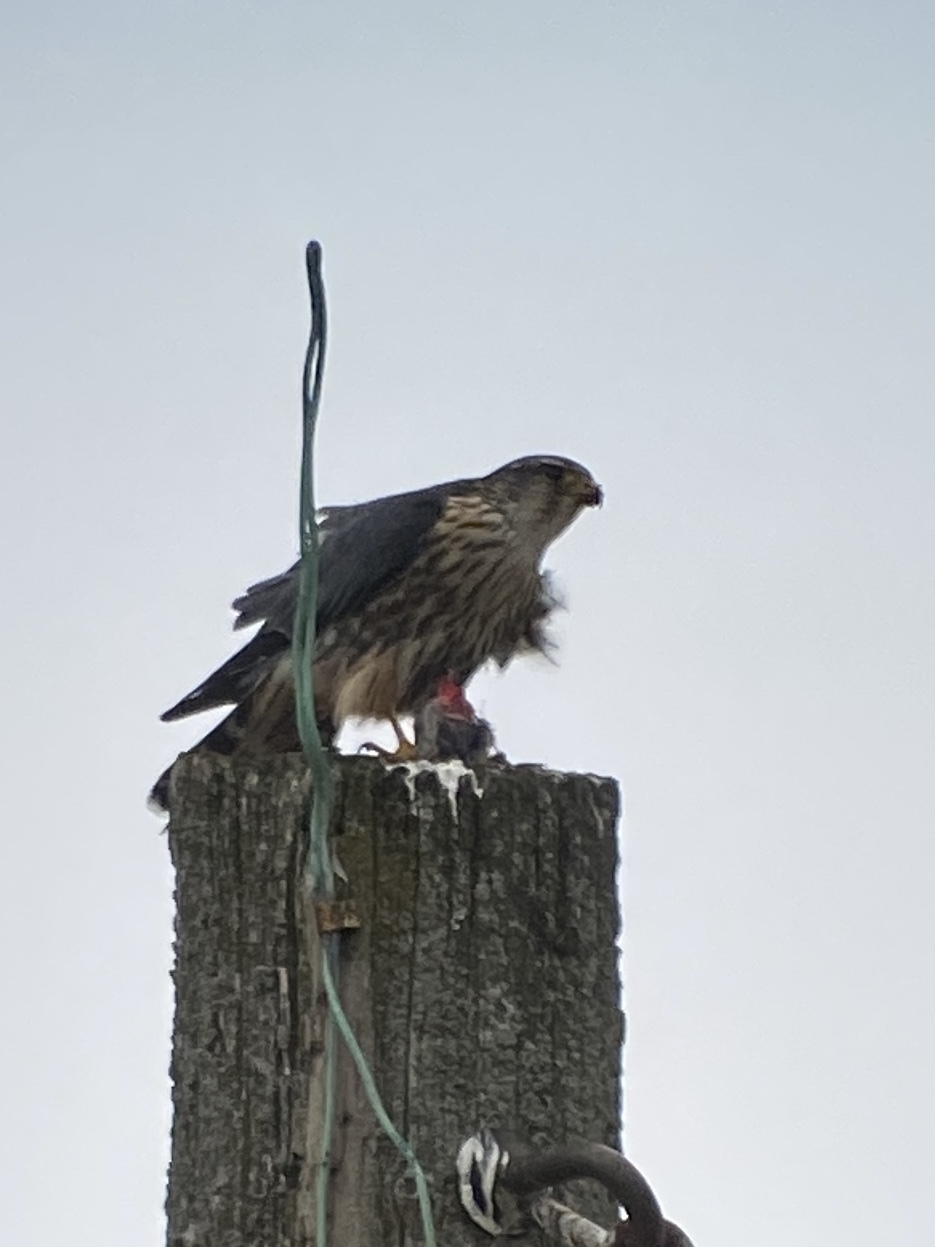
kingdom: Animalia
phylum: Chordata
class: Aves
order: Falconiformes
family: Falconidae
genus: Falco
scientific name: Falco columbarius
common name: Merlin
